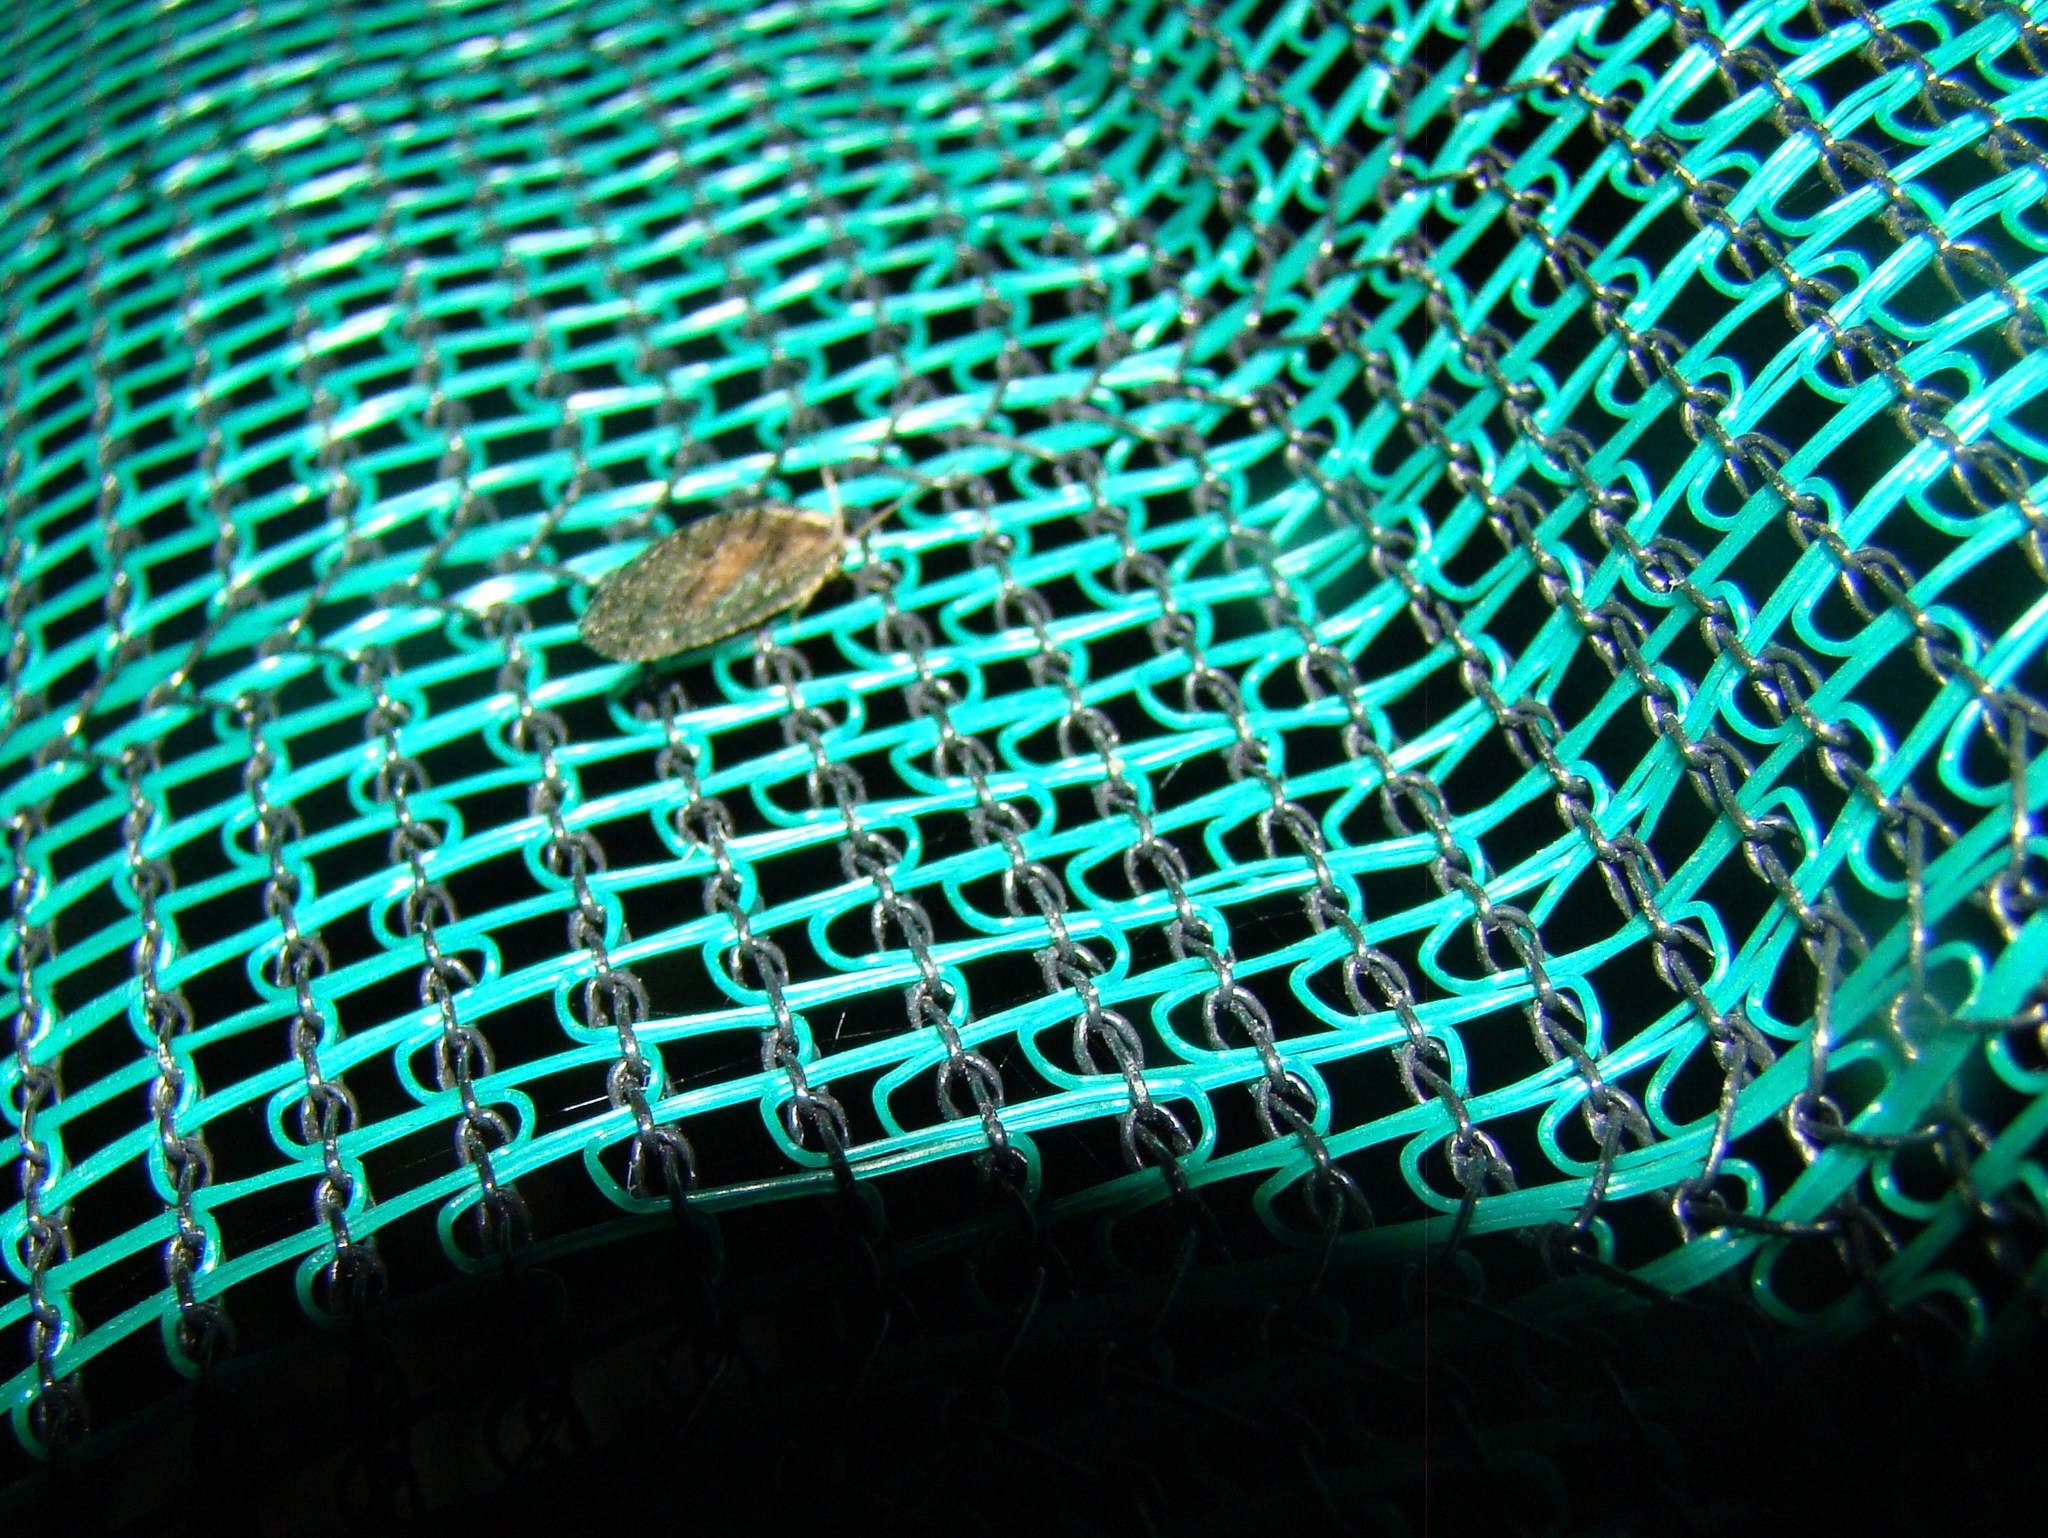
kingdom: Animalia
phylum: Arthropoda
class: Insecta
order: Neuroptera
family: Hemerobiidae
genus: Wesmaelius
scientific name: Wesmaelius subnebulosus
